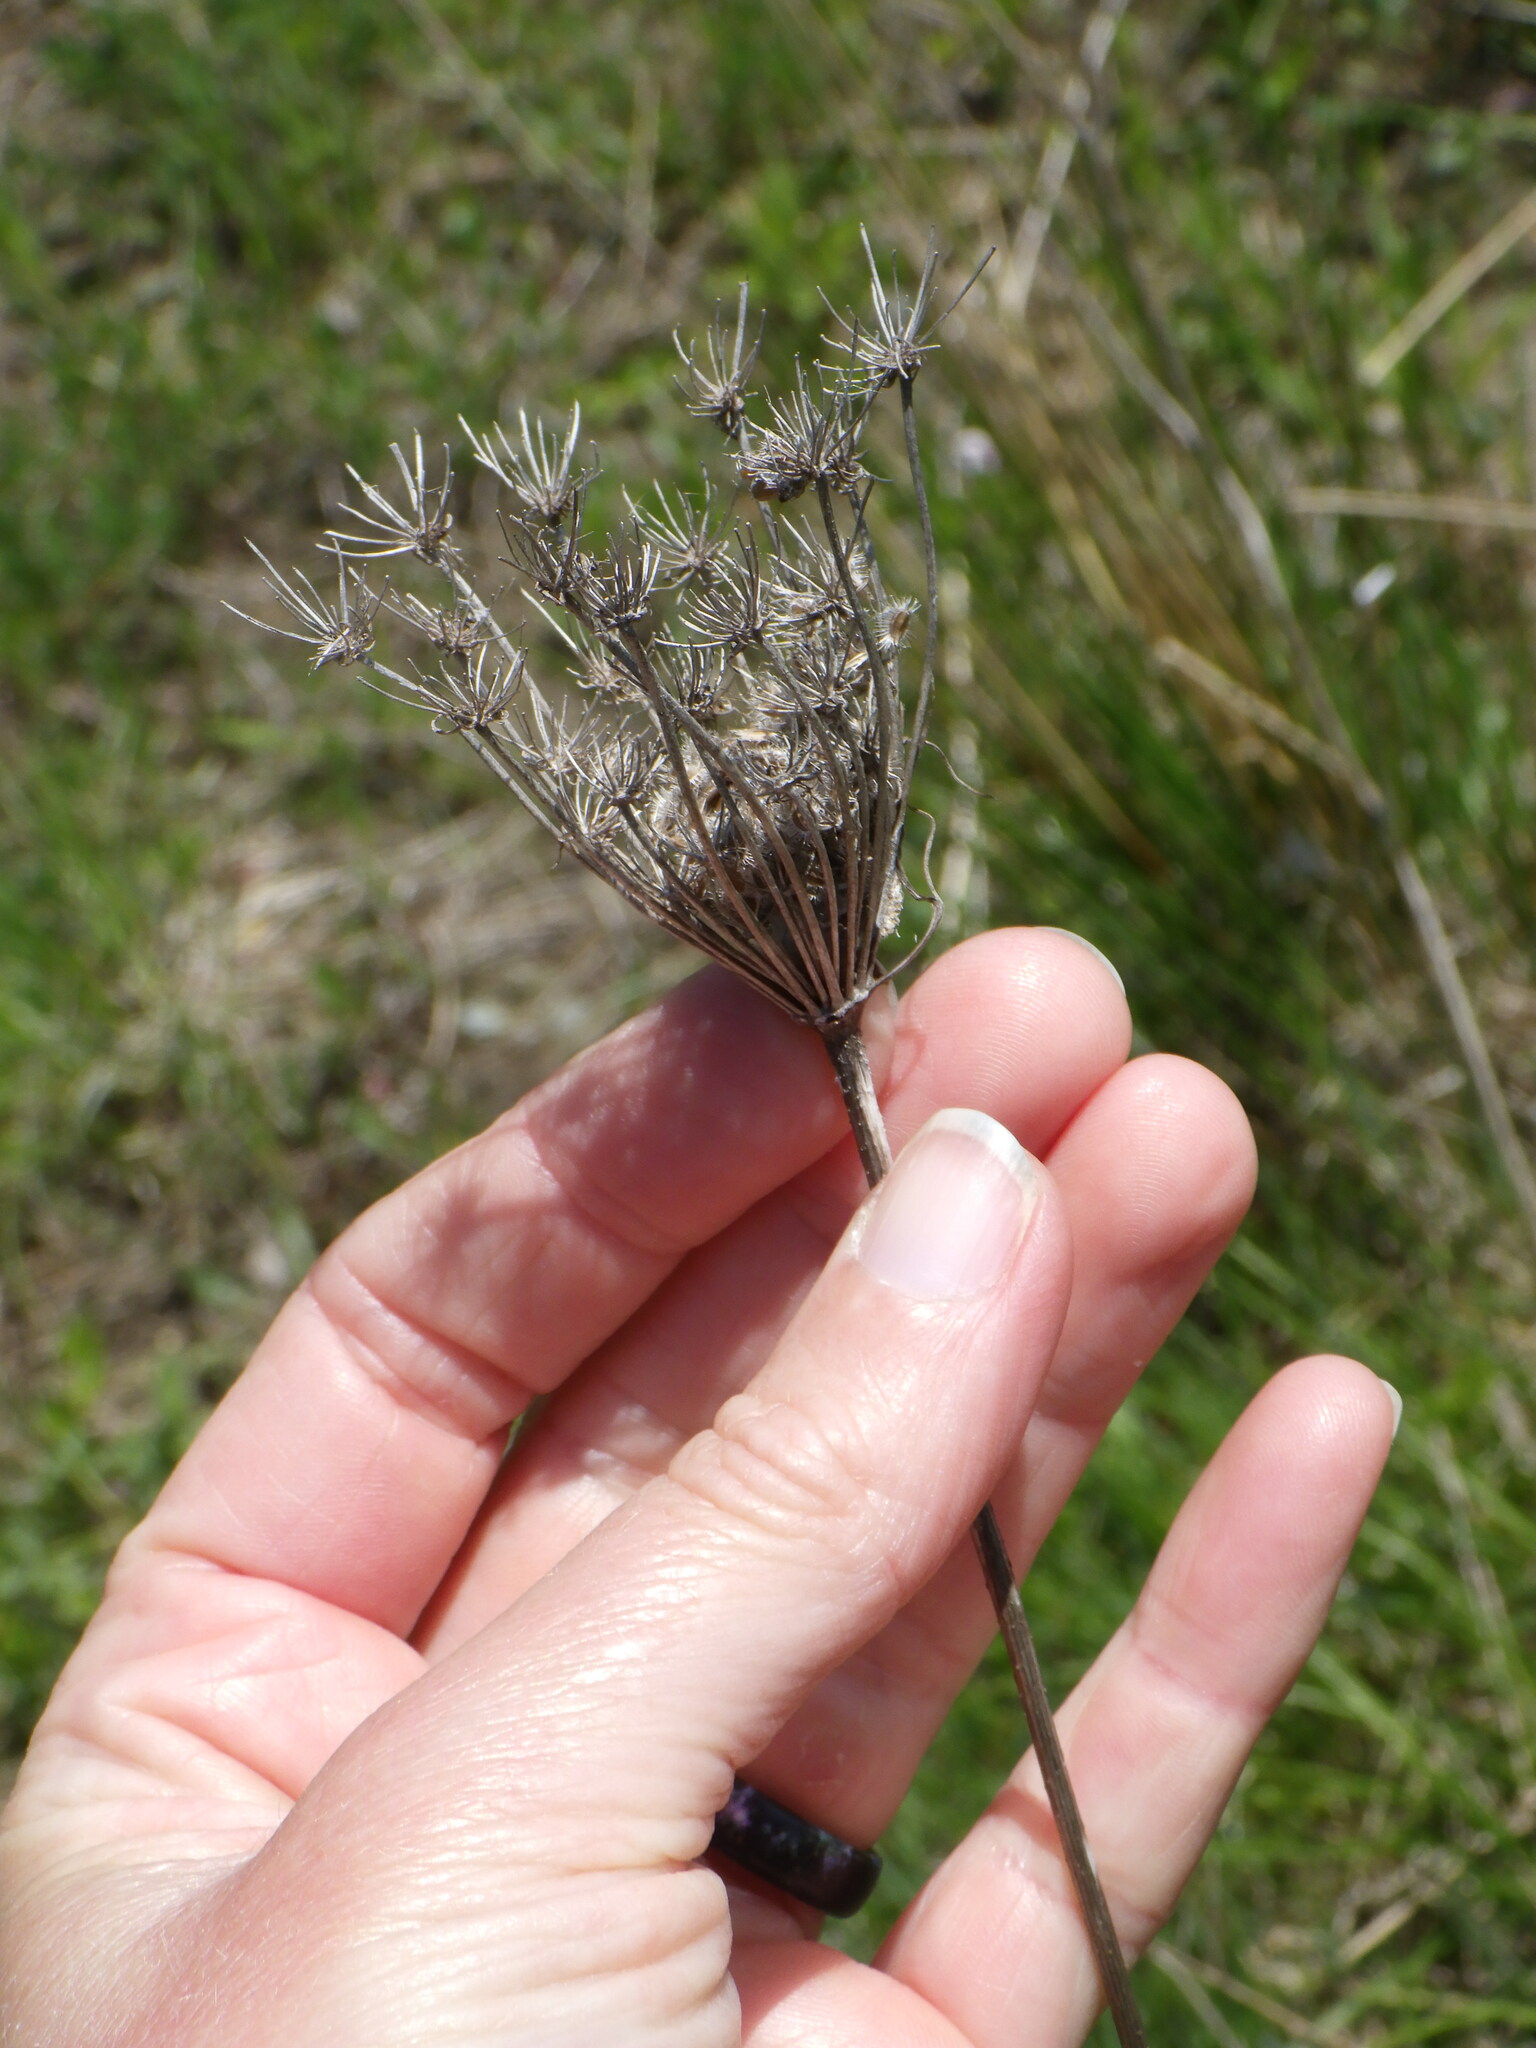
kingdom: Plantae
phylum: Tracheophyta
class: Magnoliopsida
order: Apiales
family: Apiaceae
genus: Daucus
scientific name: Daucus carota
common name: Wild carrot
